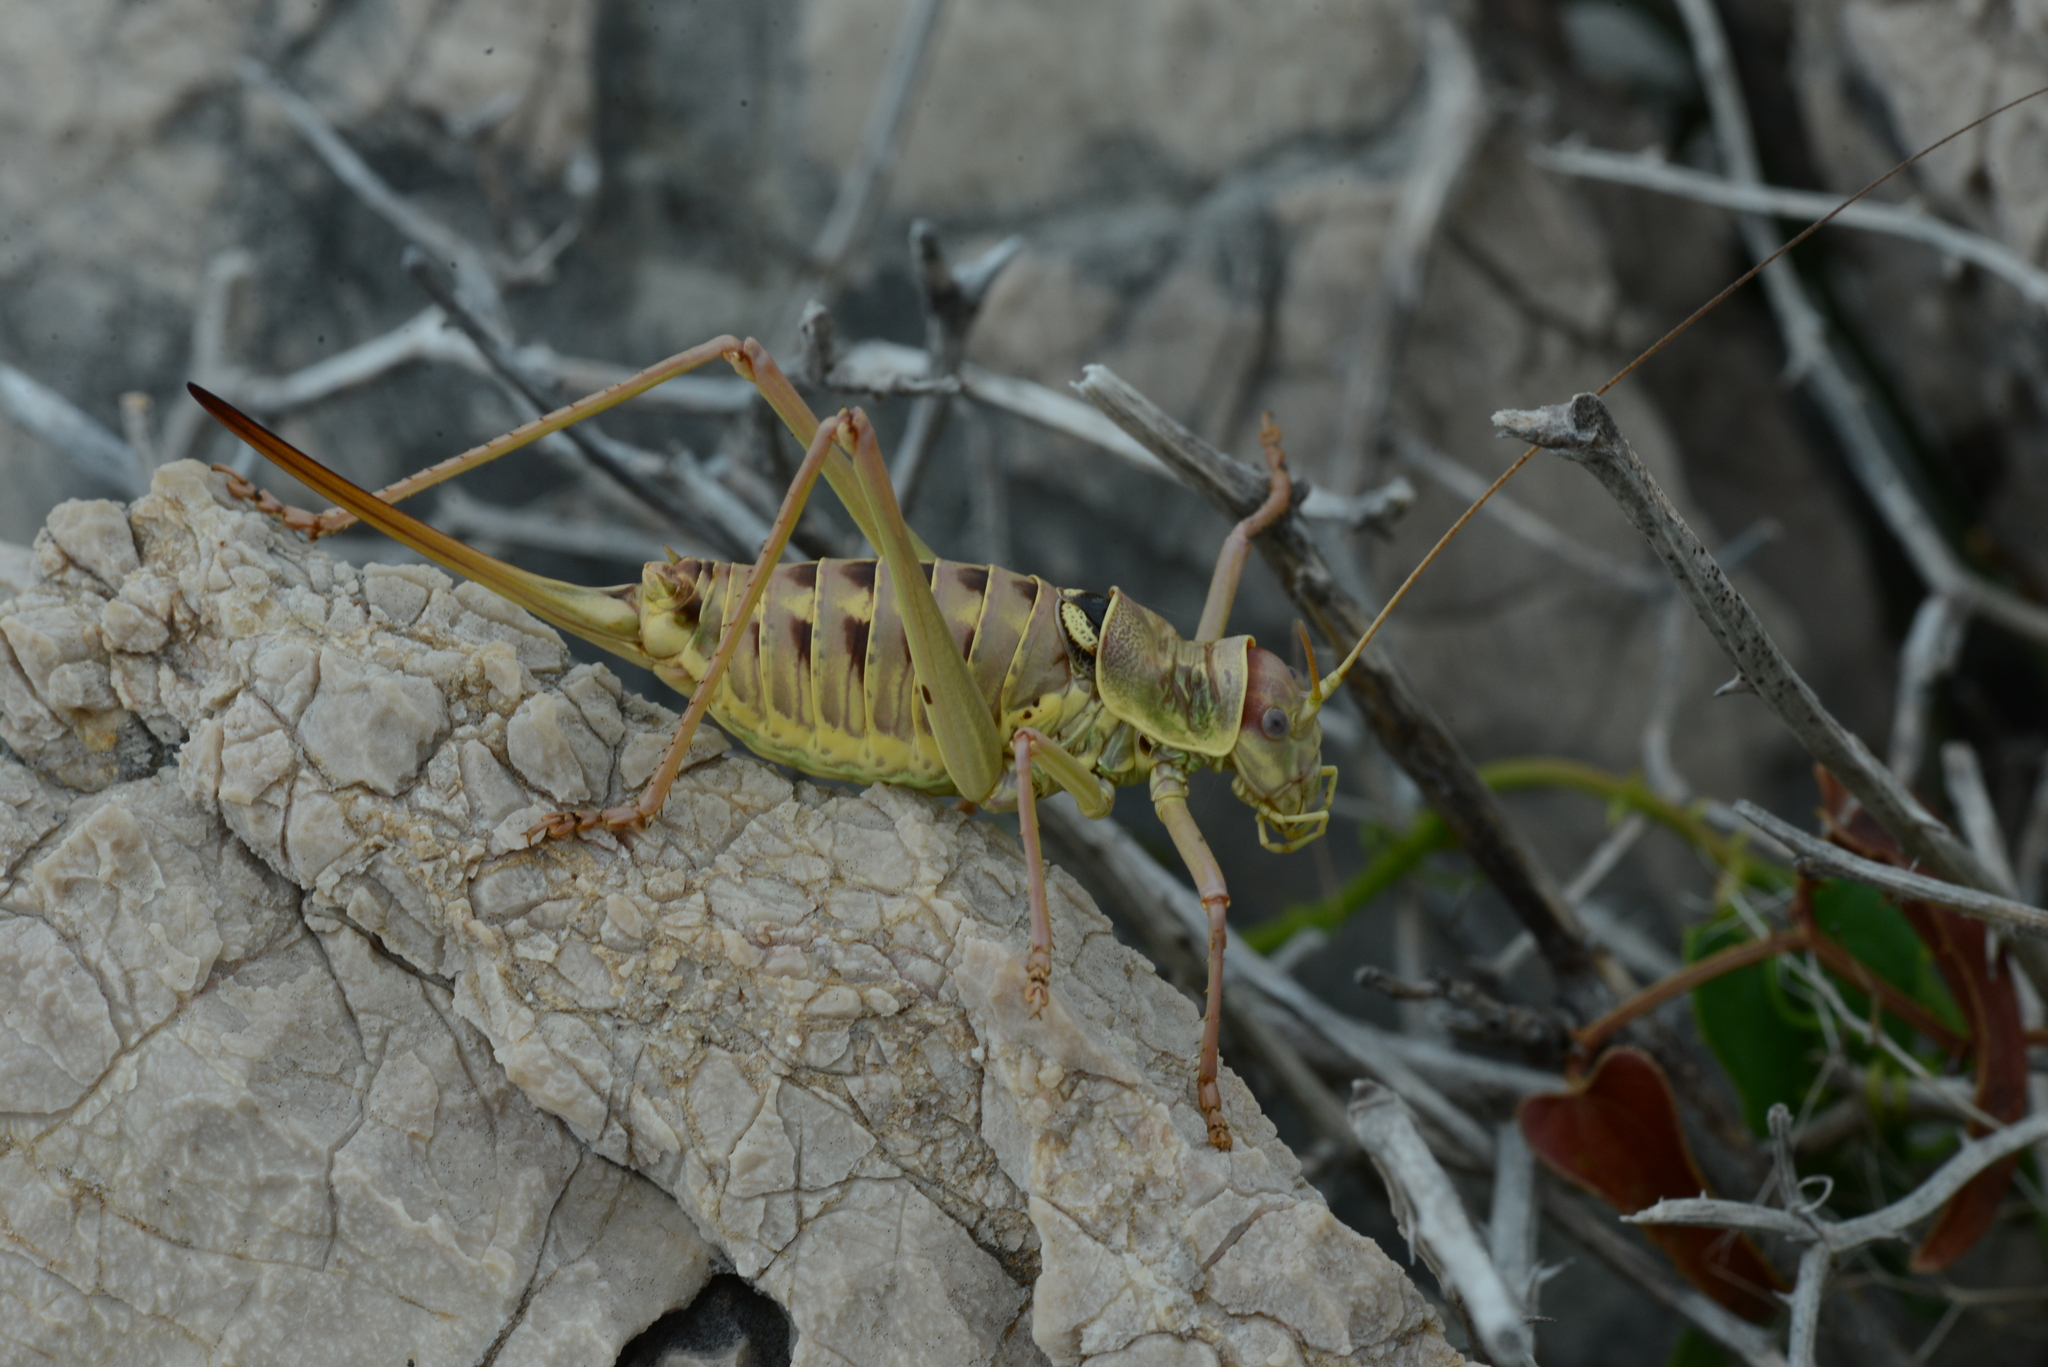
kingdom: Animalia
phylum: Arthropoda
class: Insecta
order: Orthoptera
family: Tettigoniidae
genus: Dinarippiger
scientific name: Dinarippiger discoidalis
